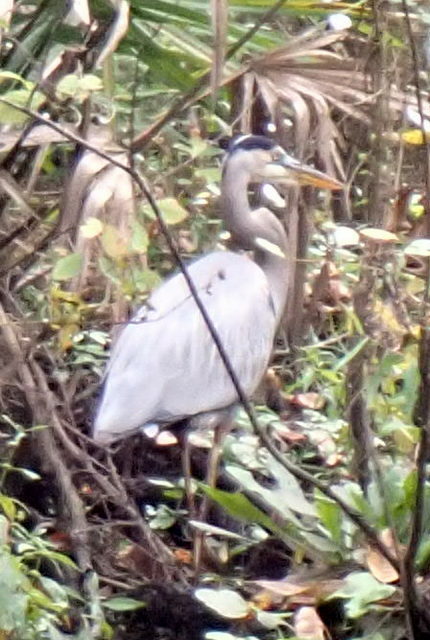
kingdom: Animalia
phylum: Chordata
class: Aves
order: Pelecaniformes
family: Ardeidae
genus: Ardea
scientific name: Ardea herodias
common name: Great blue heron
